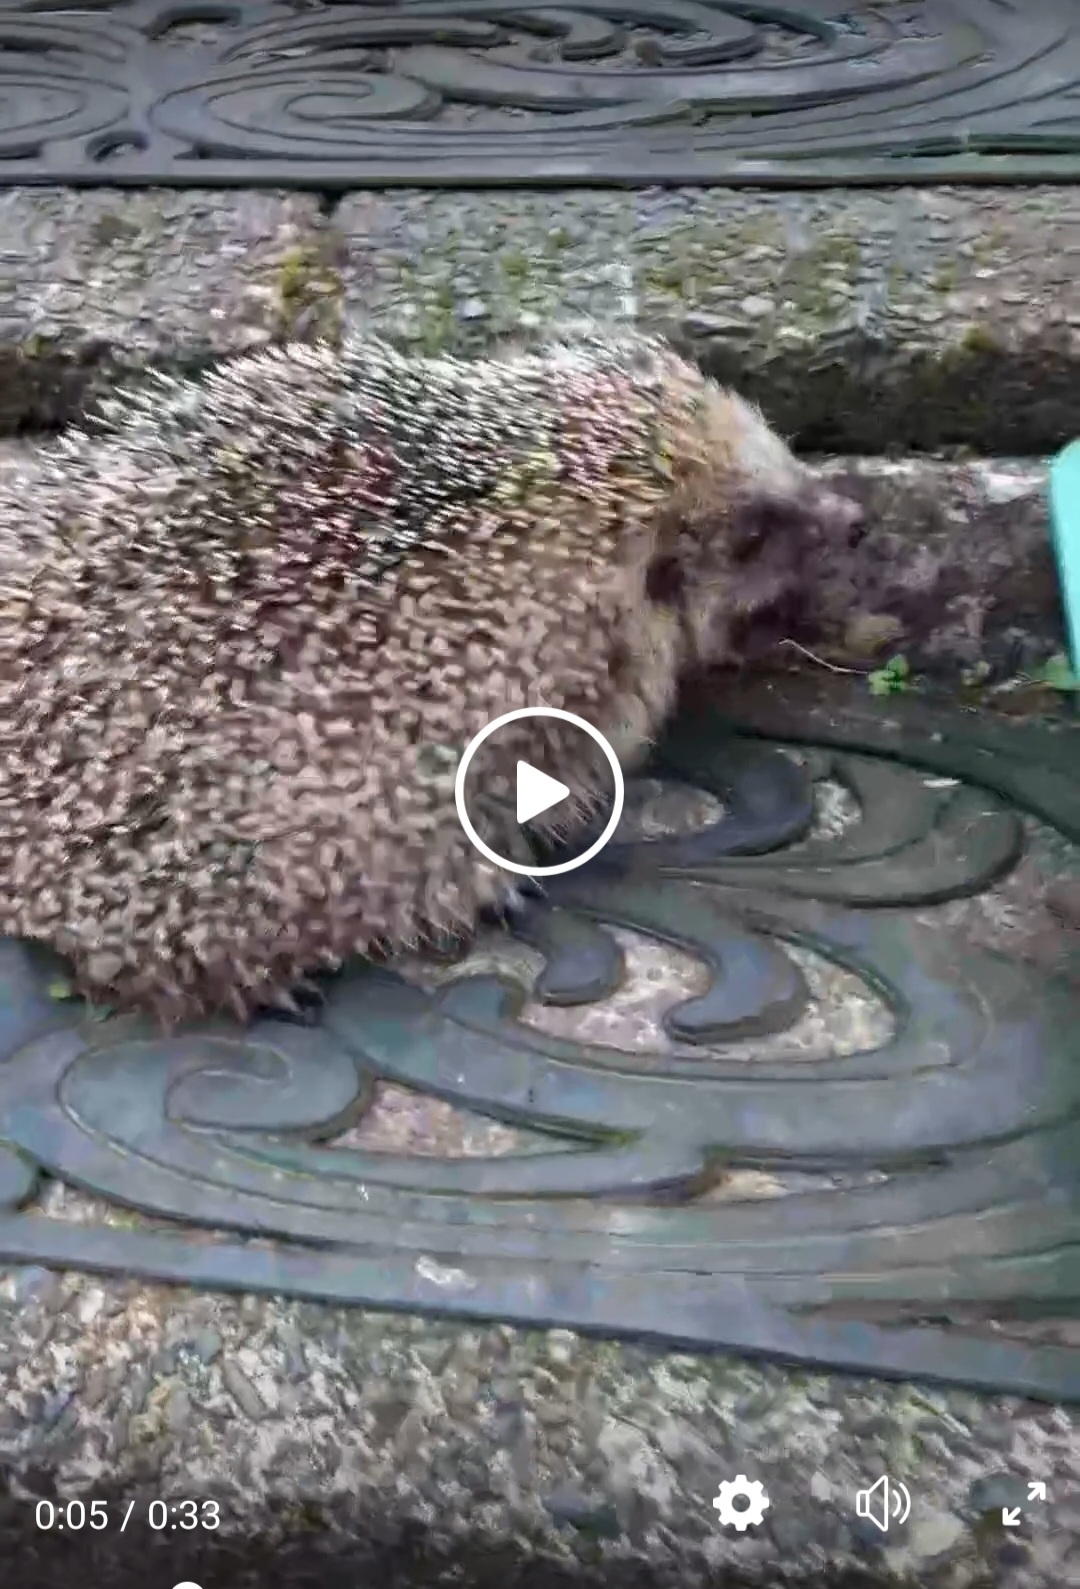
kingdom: Animalia
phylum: Chordata
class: Mammalia
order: Erinaceomorpha
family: Erinaceidae
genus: Erinaceus
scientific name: Erinaceus europaeus
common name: West european hedgehog
